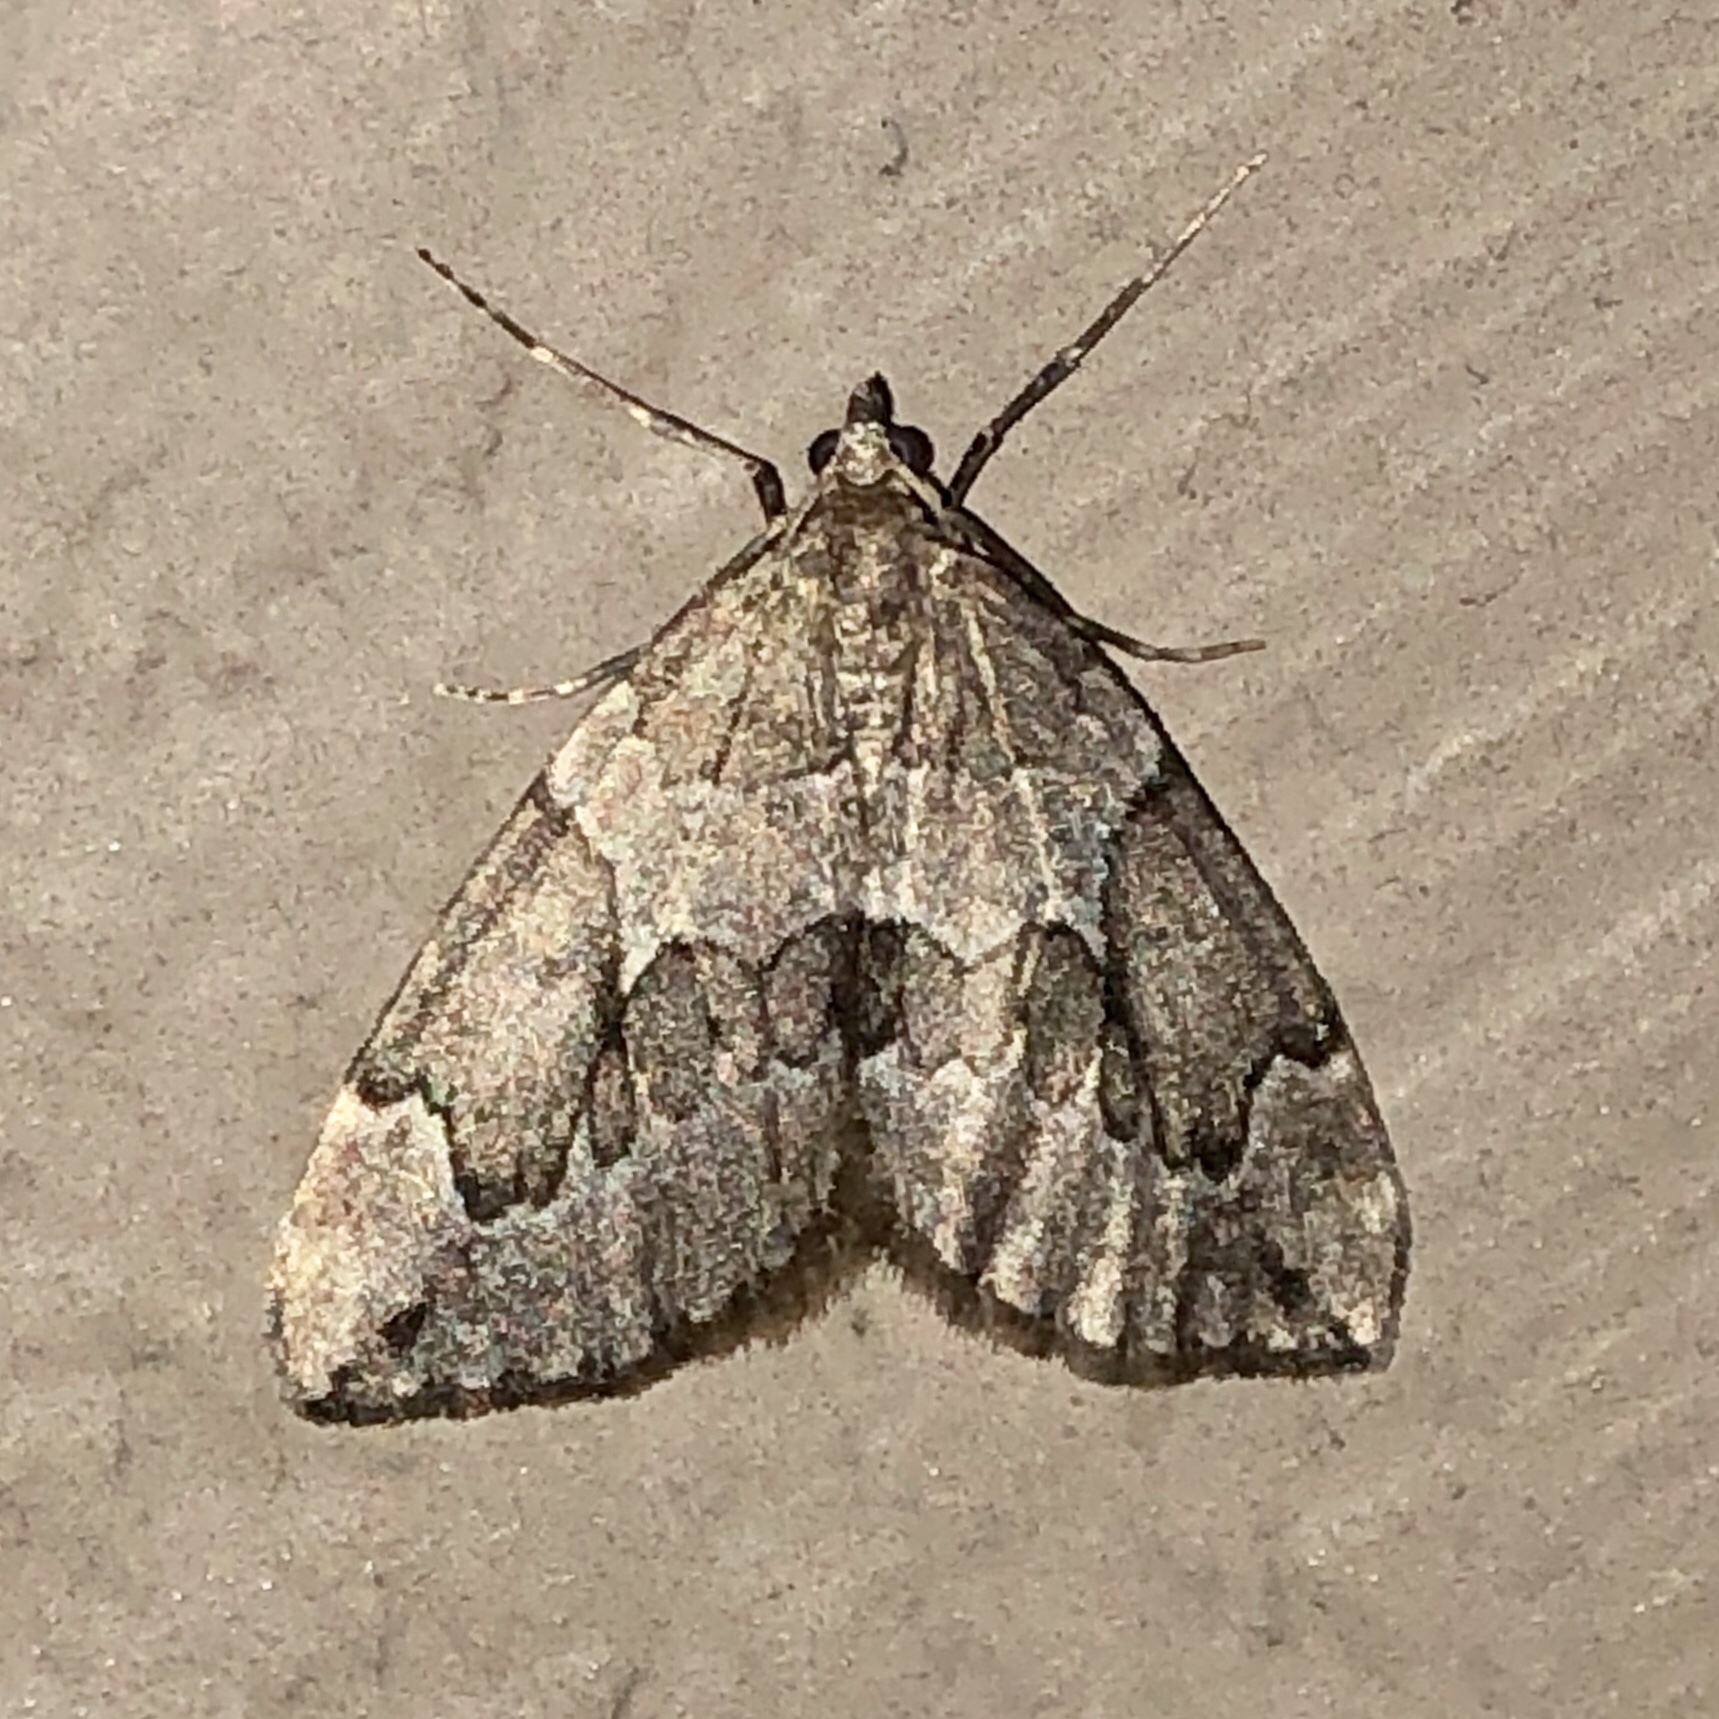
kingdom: Animalia
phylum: Arthropoda
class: Insecta
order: Lepidoptera
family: Geometridae
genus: Thera
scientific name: Thera juniperata
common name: Juniper carpet
